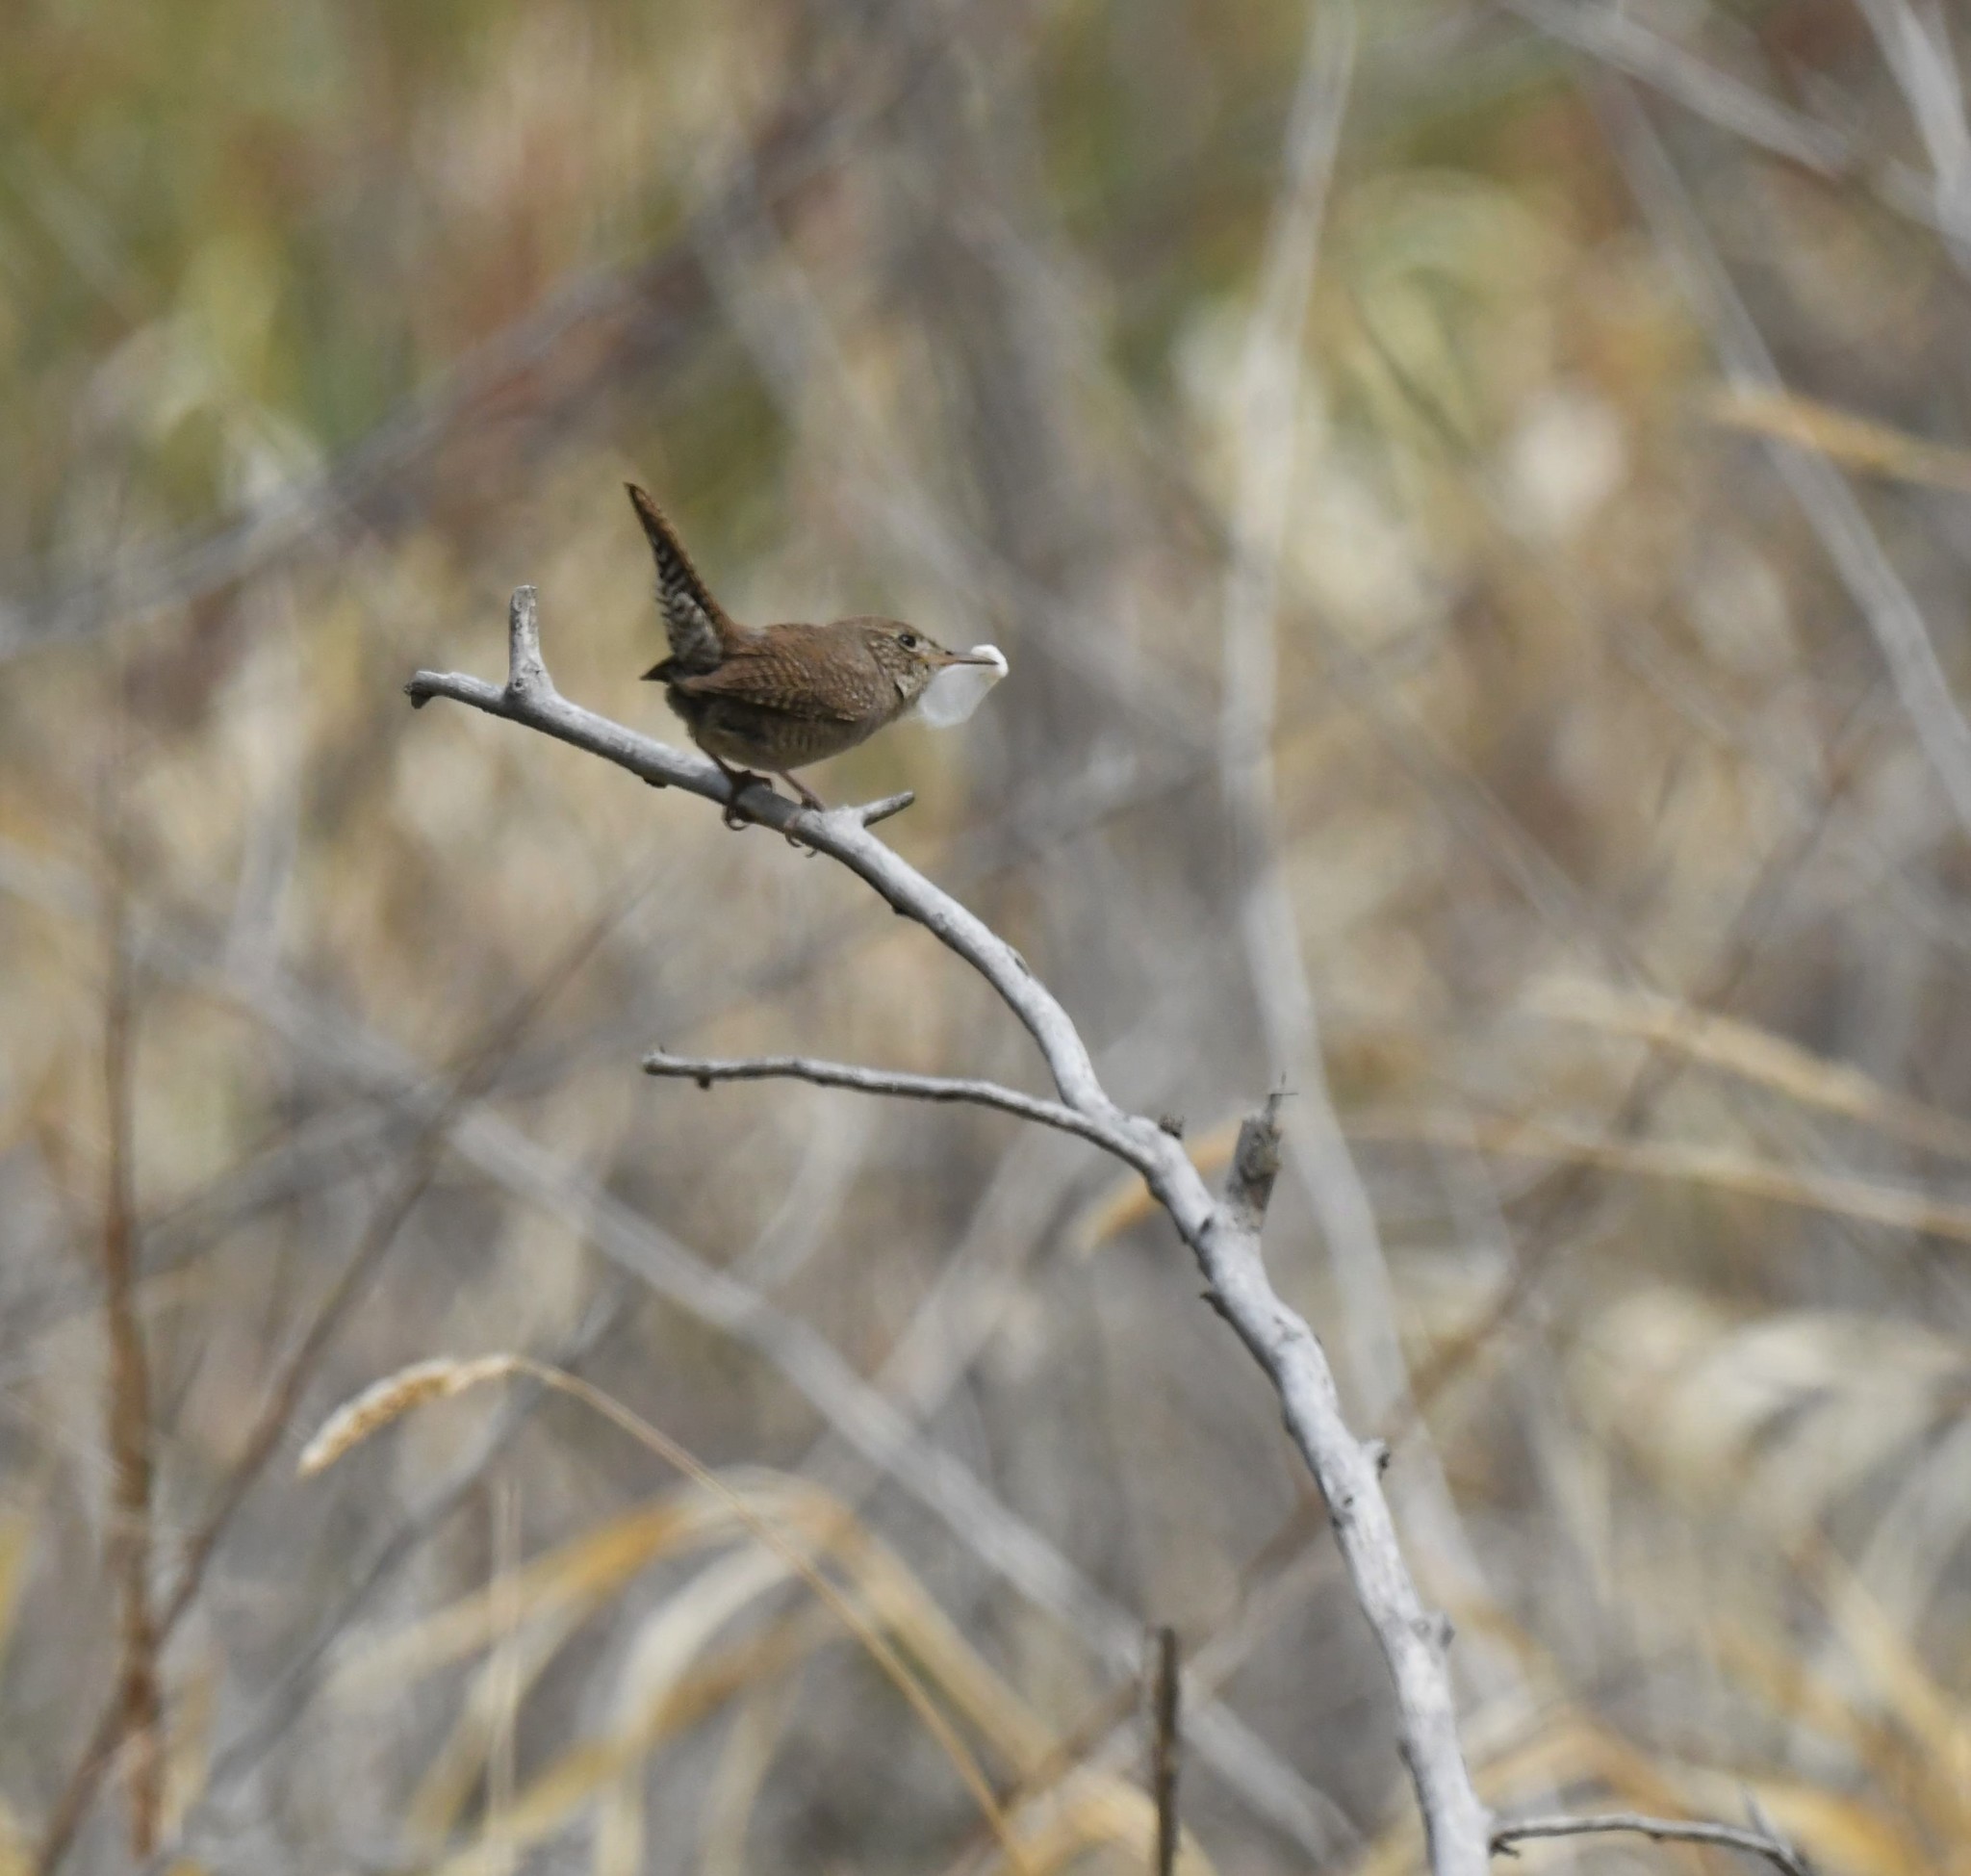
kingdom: Animalia
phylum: Chordata
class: Aves
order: Passeriformes
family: Troglodytidae
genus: Troglodytes
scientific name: Troglodytes aedon
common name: House wren
